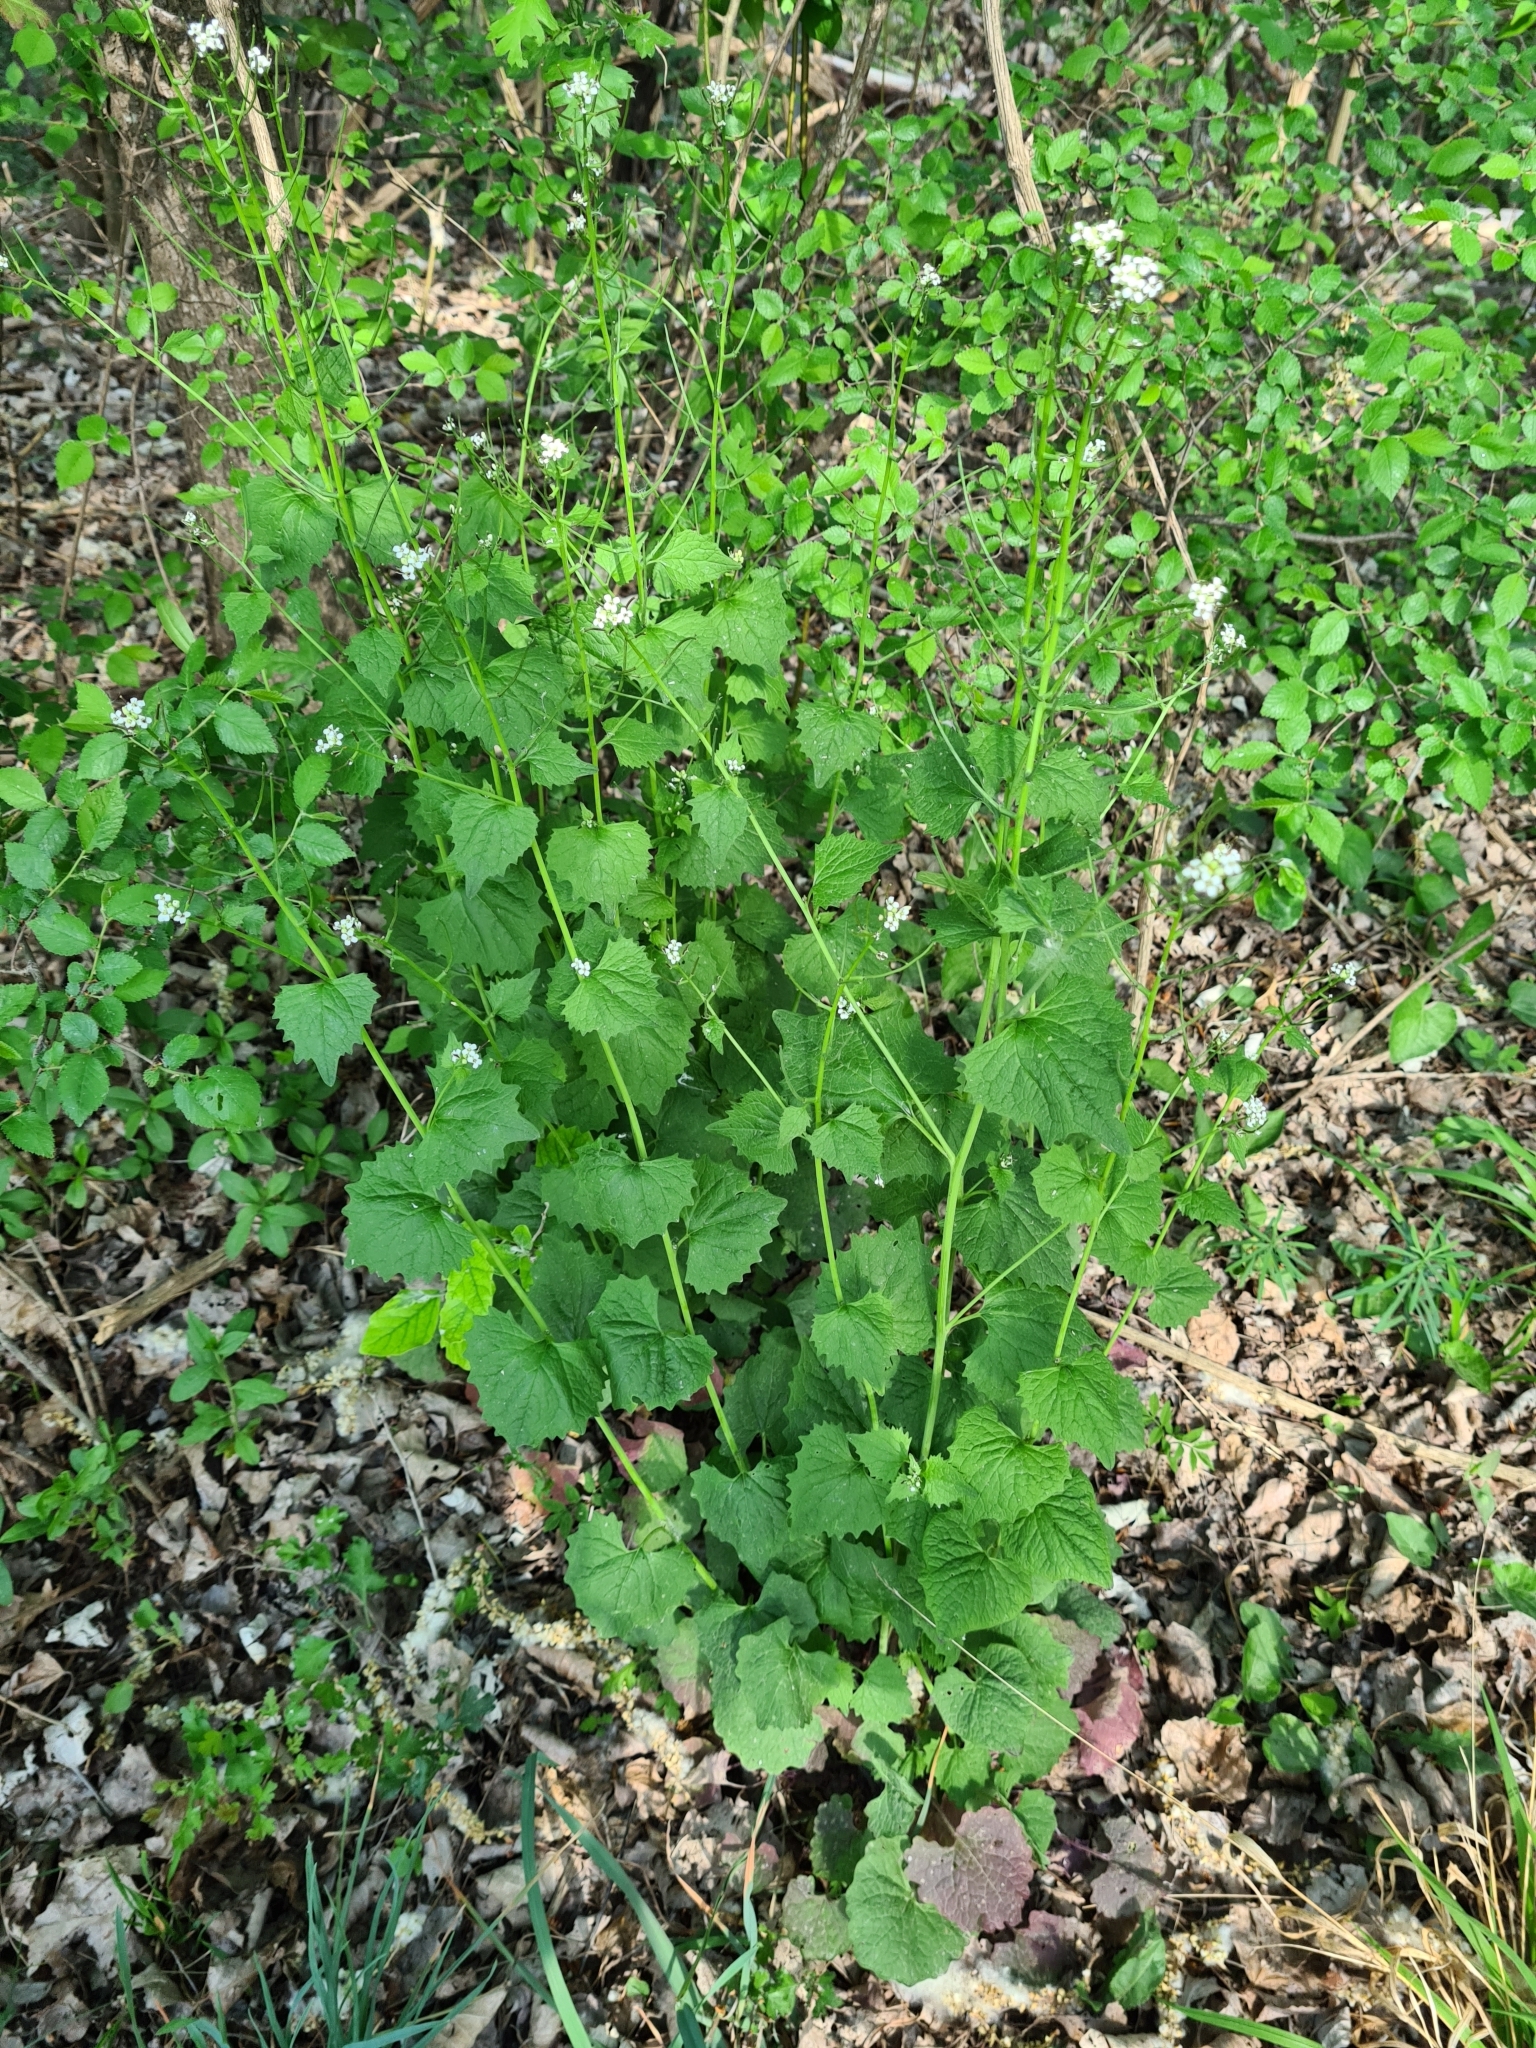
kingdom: Plantae
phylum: Tracheophyta
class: Magnoliopsida
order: Brassicales
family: Brassicaceae
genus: Alliaria
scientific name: Alliaria petiolata
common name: Garlic mustard
